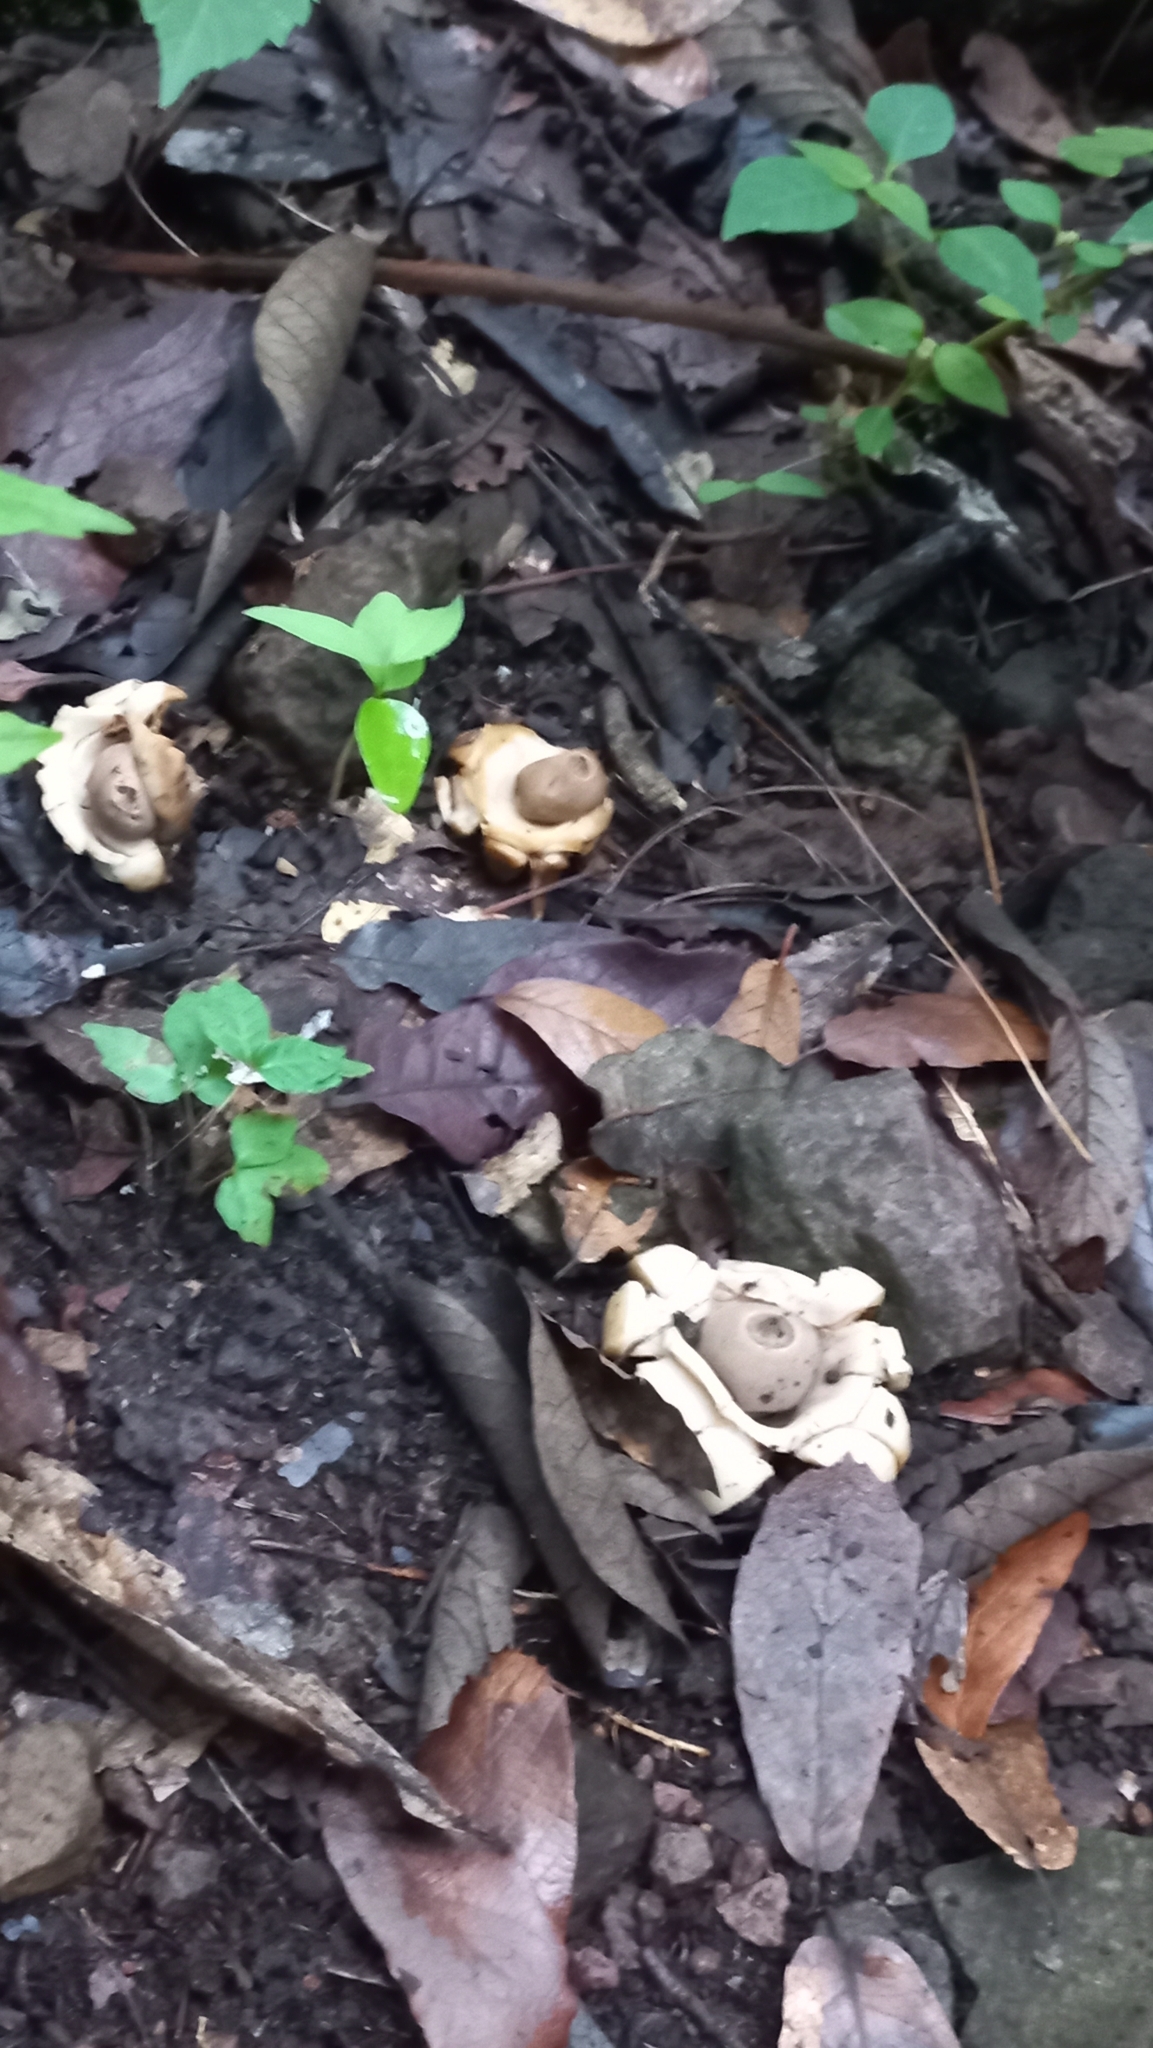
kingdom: Fungi
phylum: Basidiomycota
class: Agaricomycetes
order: Geastrales
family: Geastraceae
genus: Geastrum
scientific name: Geastrum saccatum
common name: Rounded earthstar
